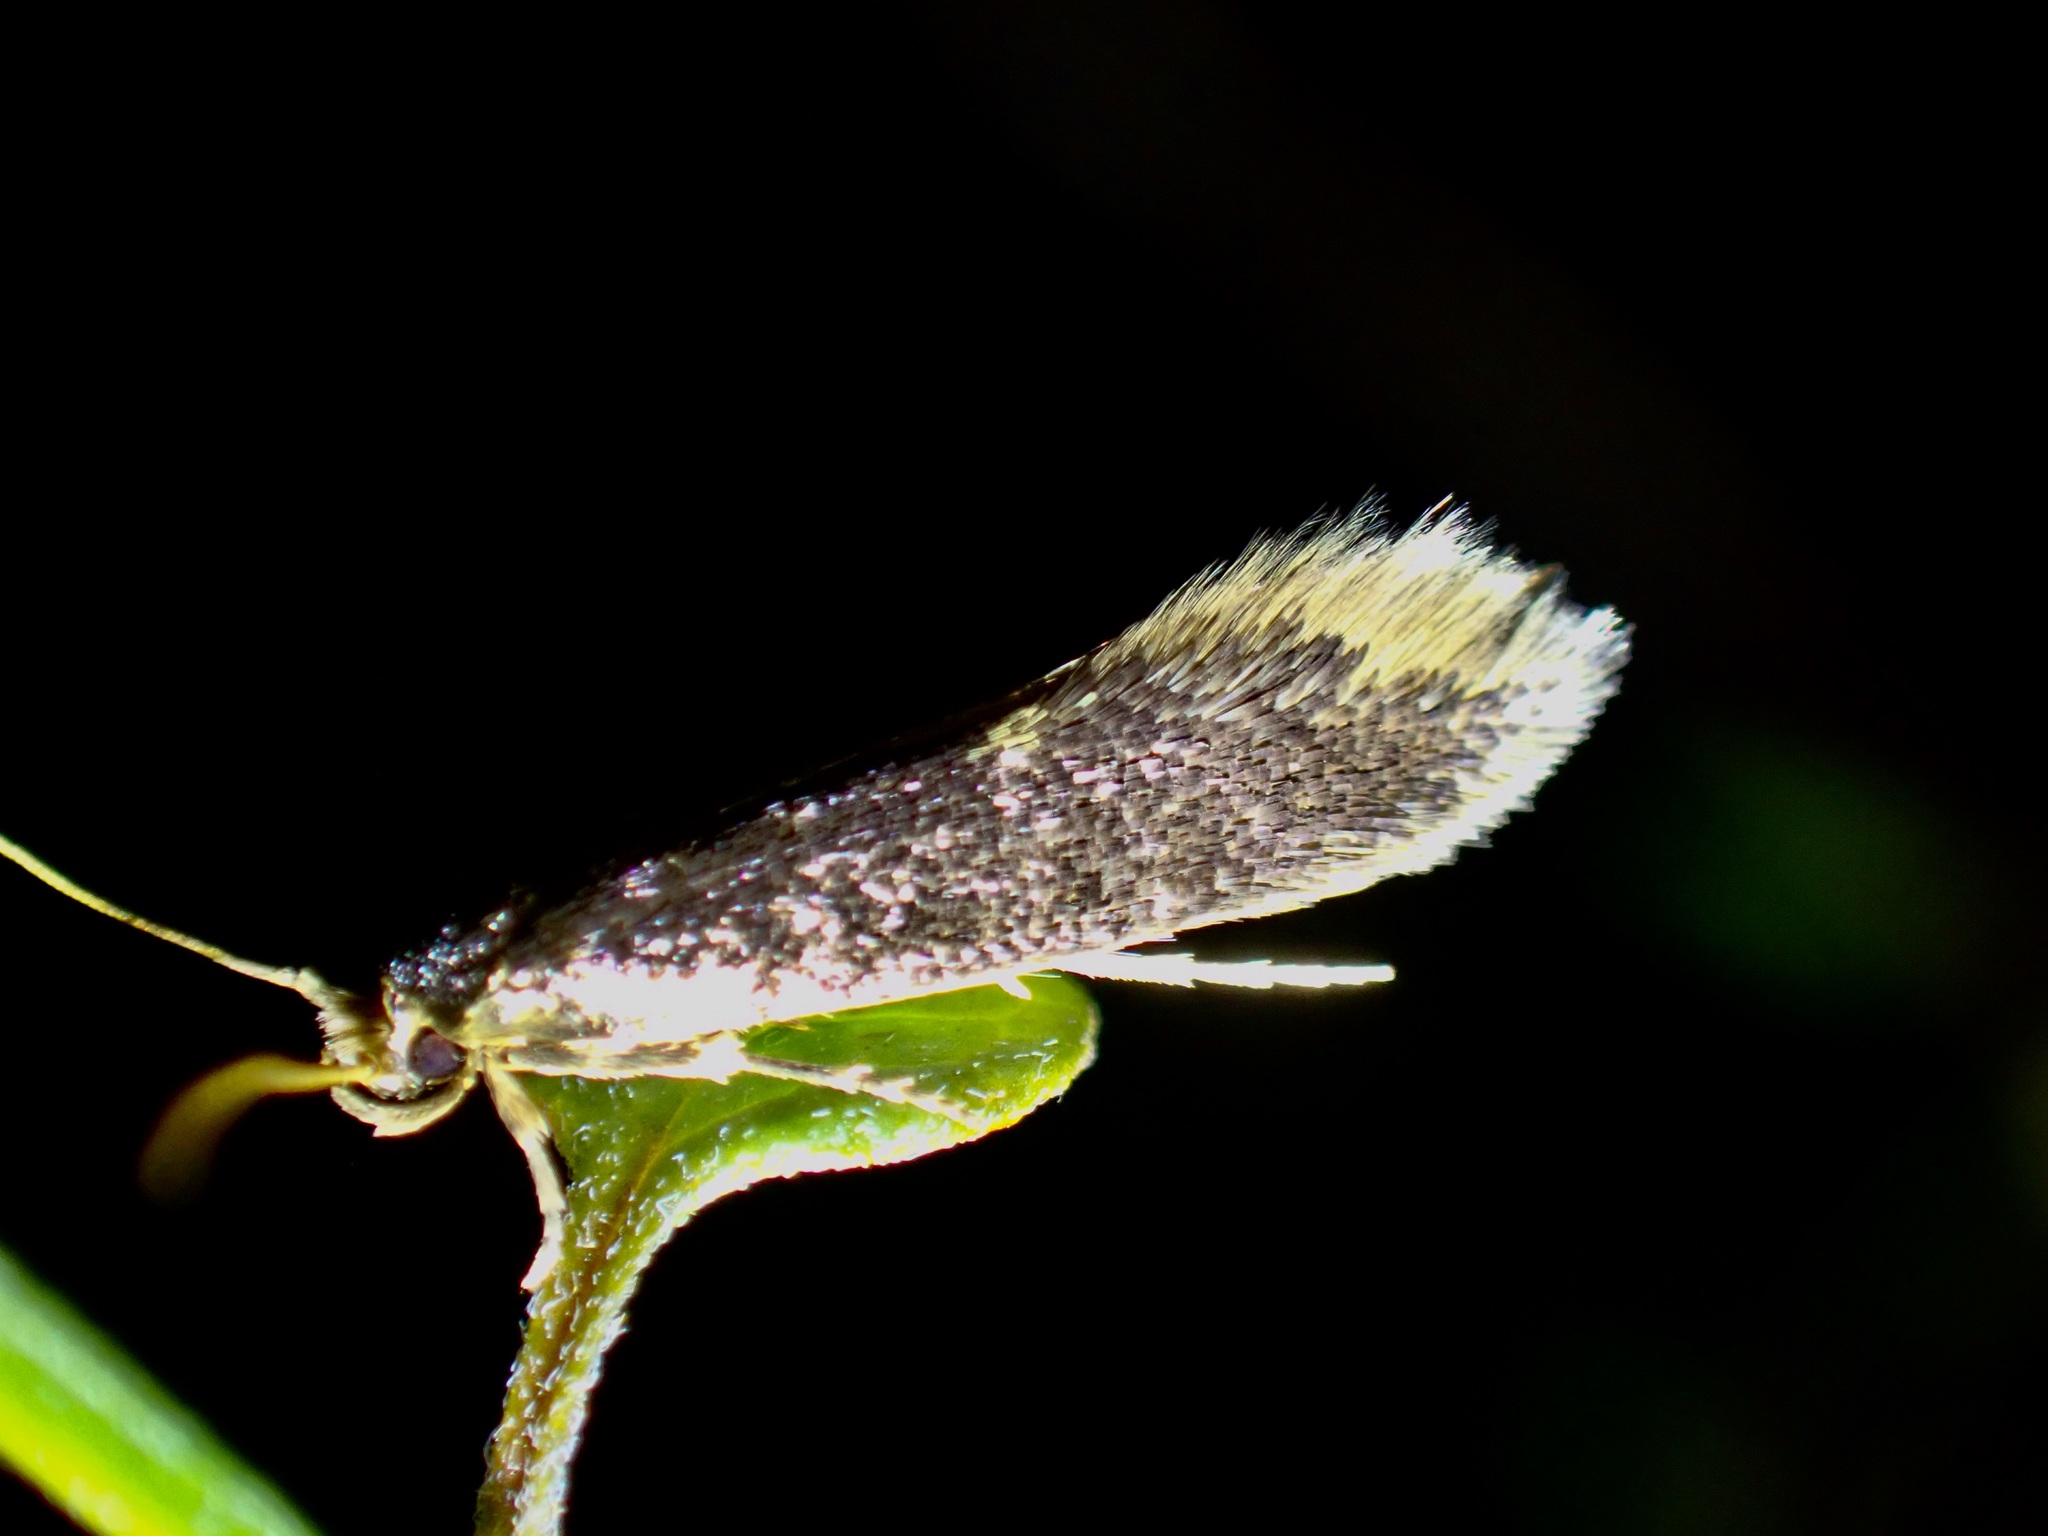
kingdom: Animalia
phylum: Arthropoda
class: Insecta
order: Lepidoptera
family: Tineidae
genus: Opogona
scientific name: Opogona omoscopa
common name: Moth
